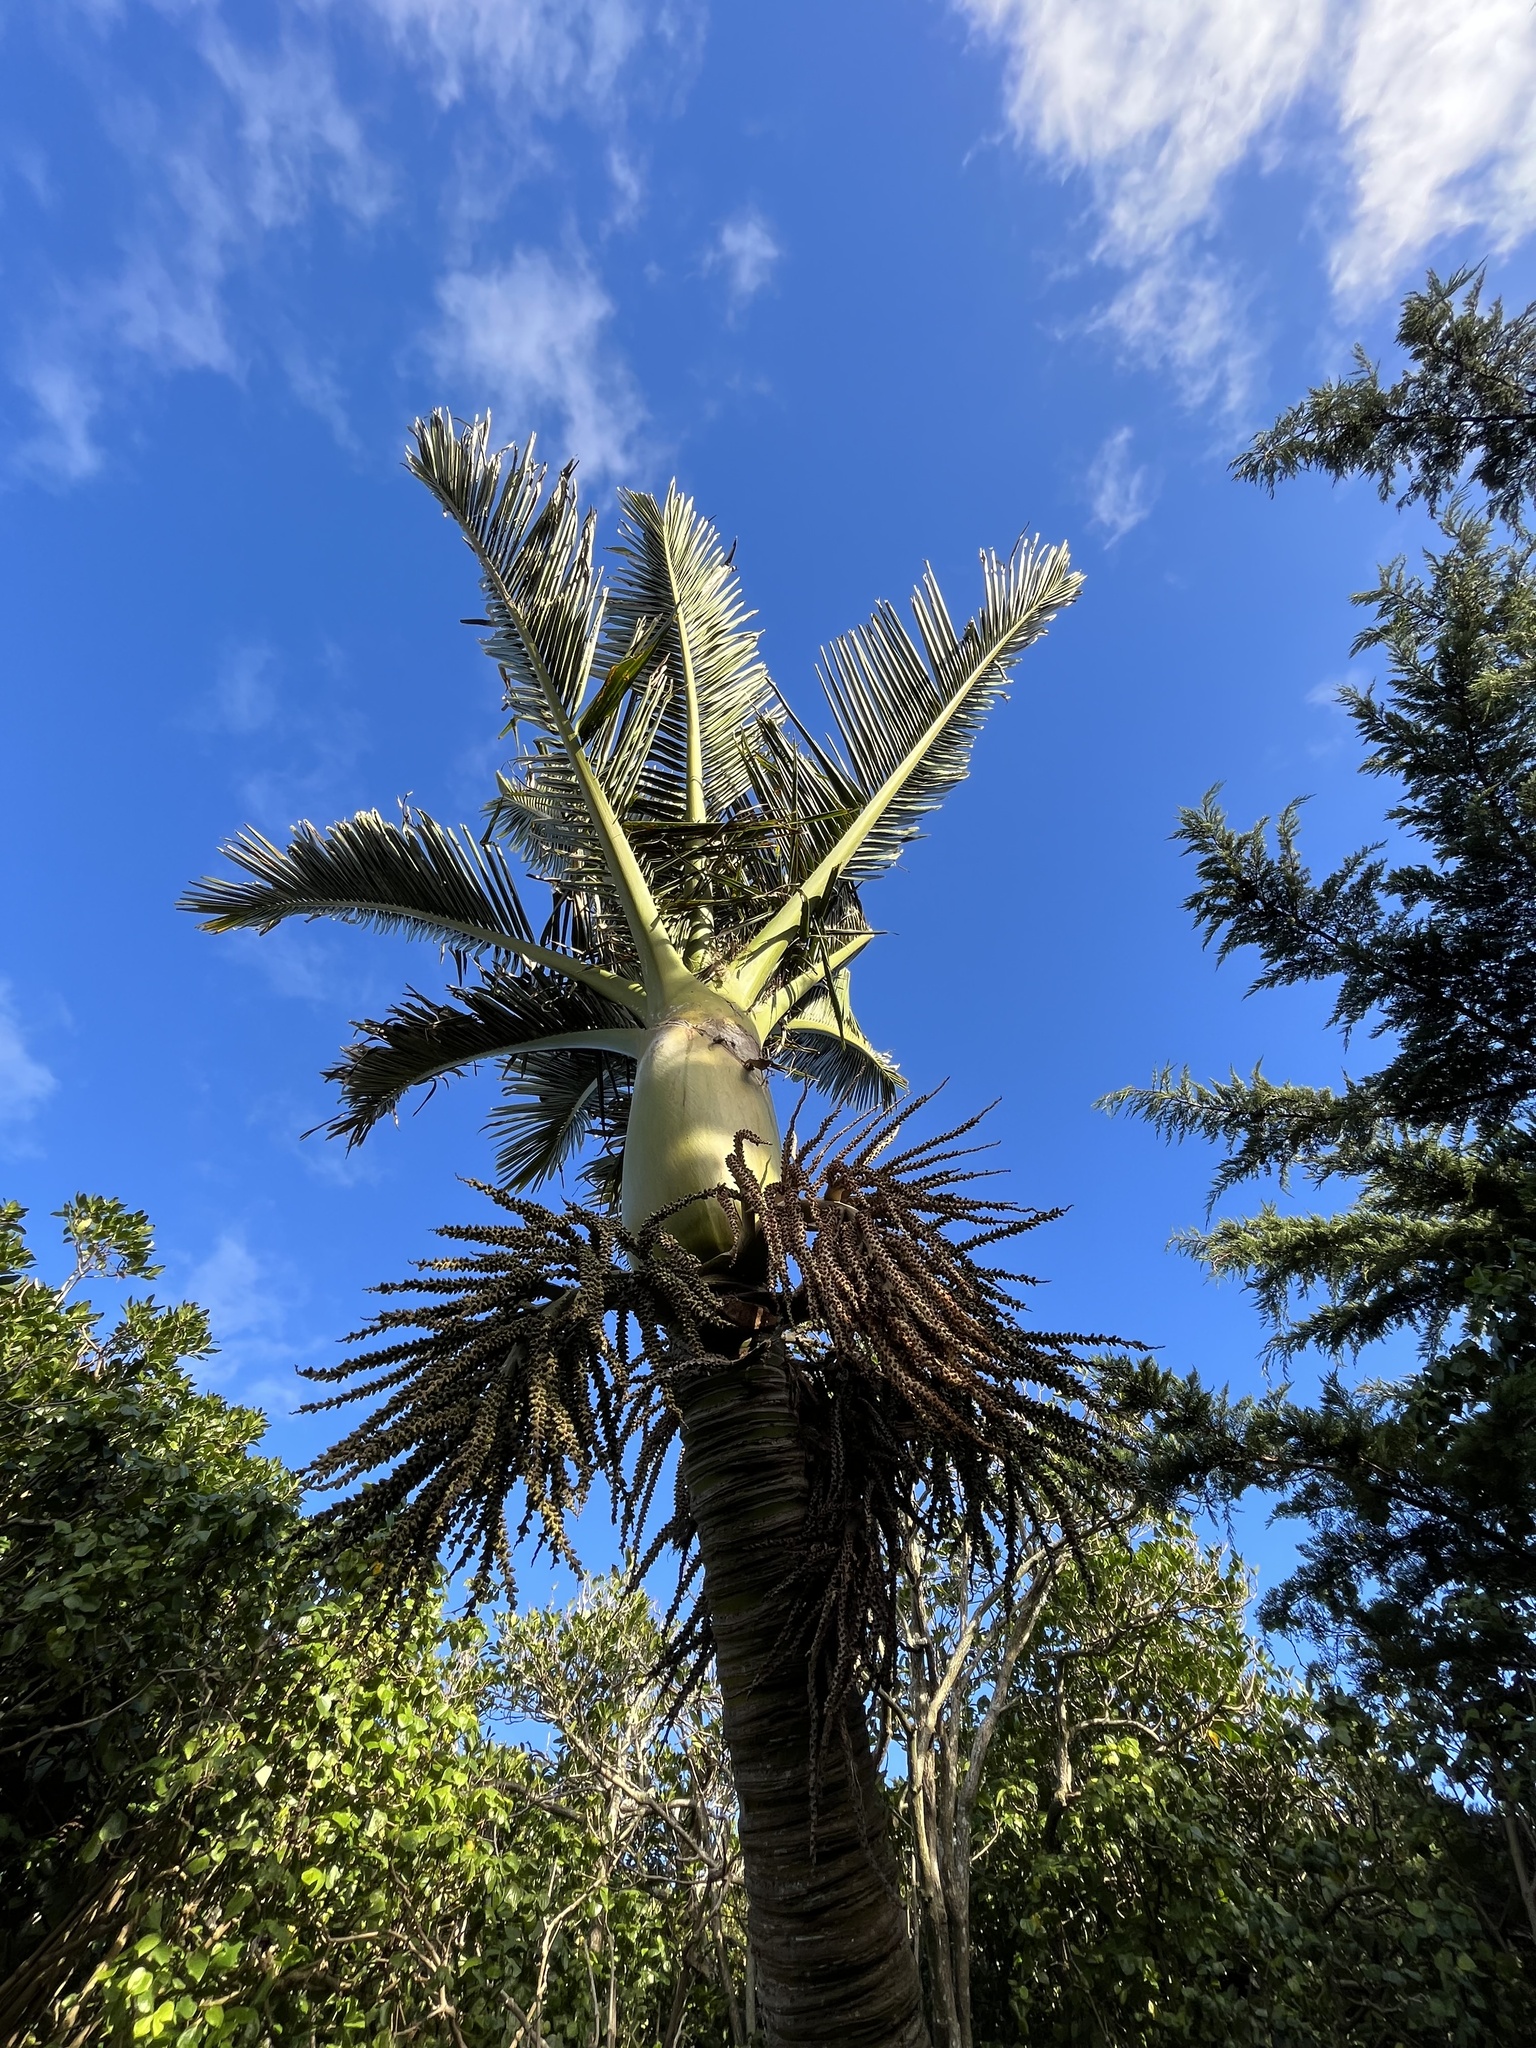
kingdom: Plantae
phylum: Tracheophyta
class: Liliopsida
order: Arecales
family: Arecaceae
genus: Rhopalostylis
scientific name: Rhopalostylis sapida
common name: Feather-duster palm
